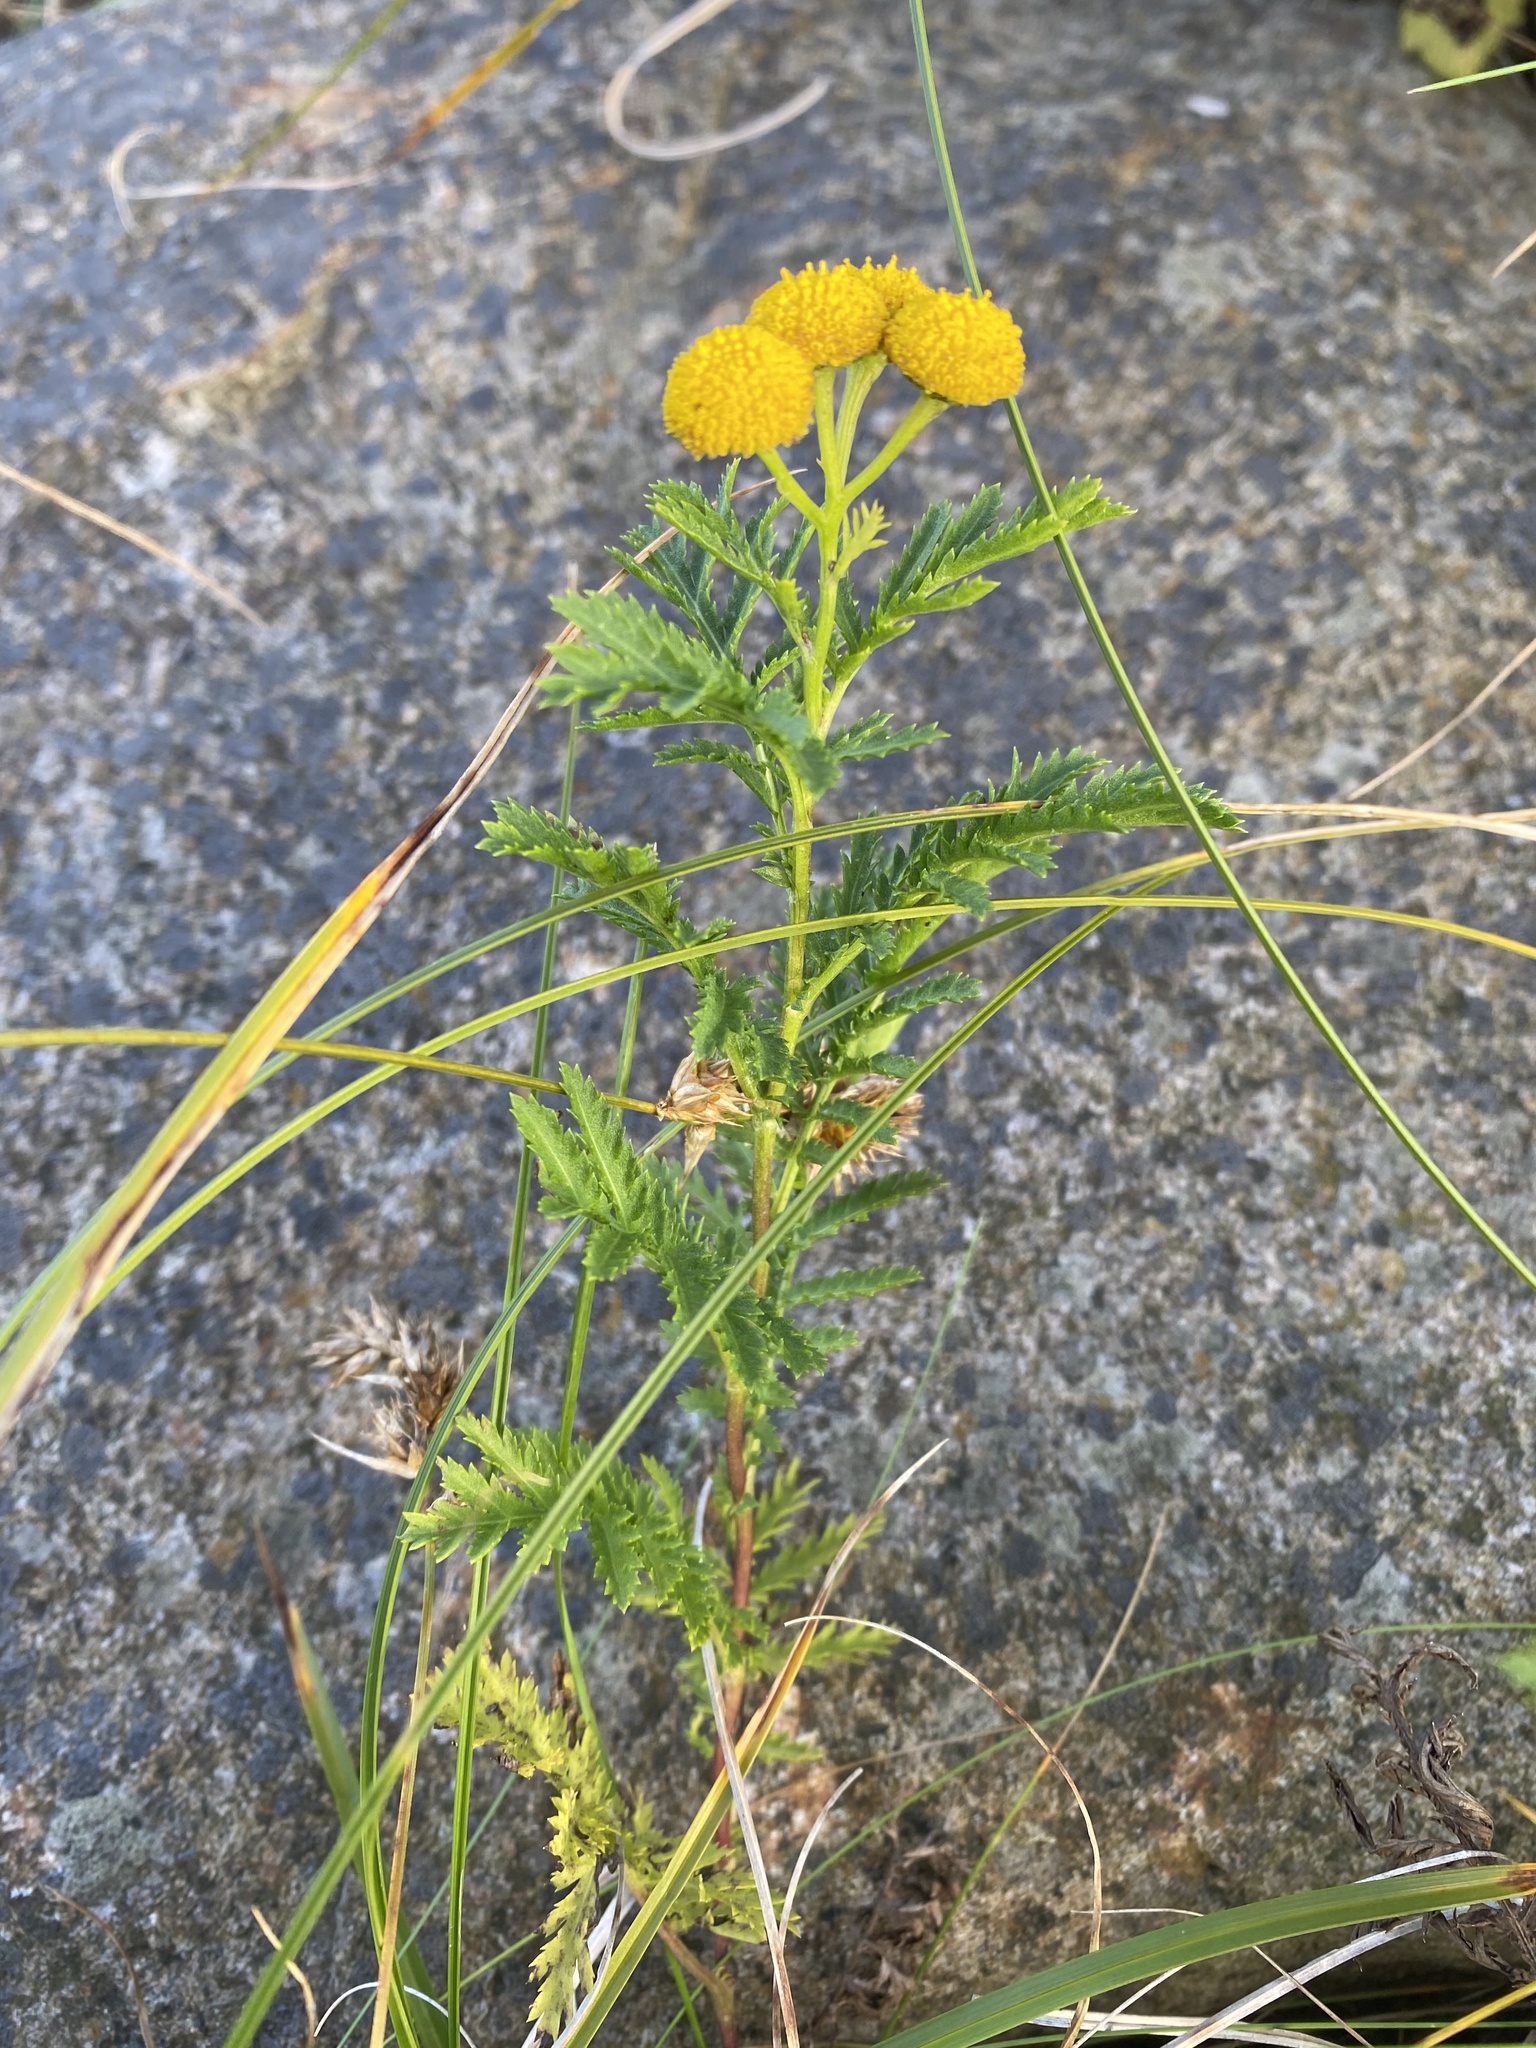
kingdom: Plantae
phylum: Tracheophyta
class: Magnoliopsida
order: Asterales
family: Asteraceae
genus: Tanacetum
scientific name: Tanacetum vulgare
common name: Common tansy
